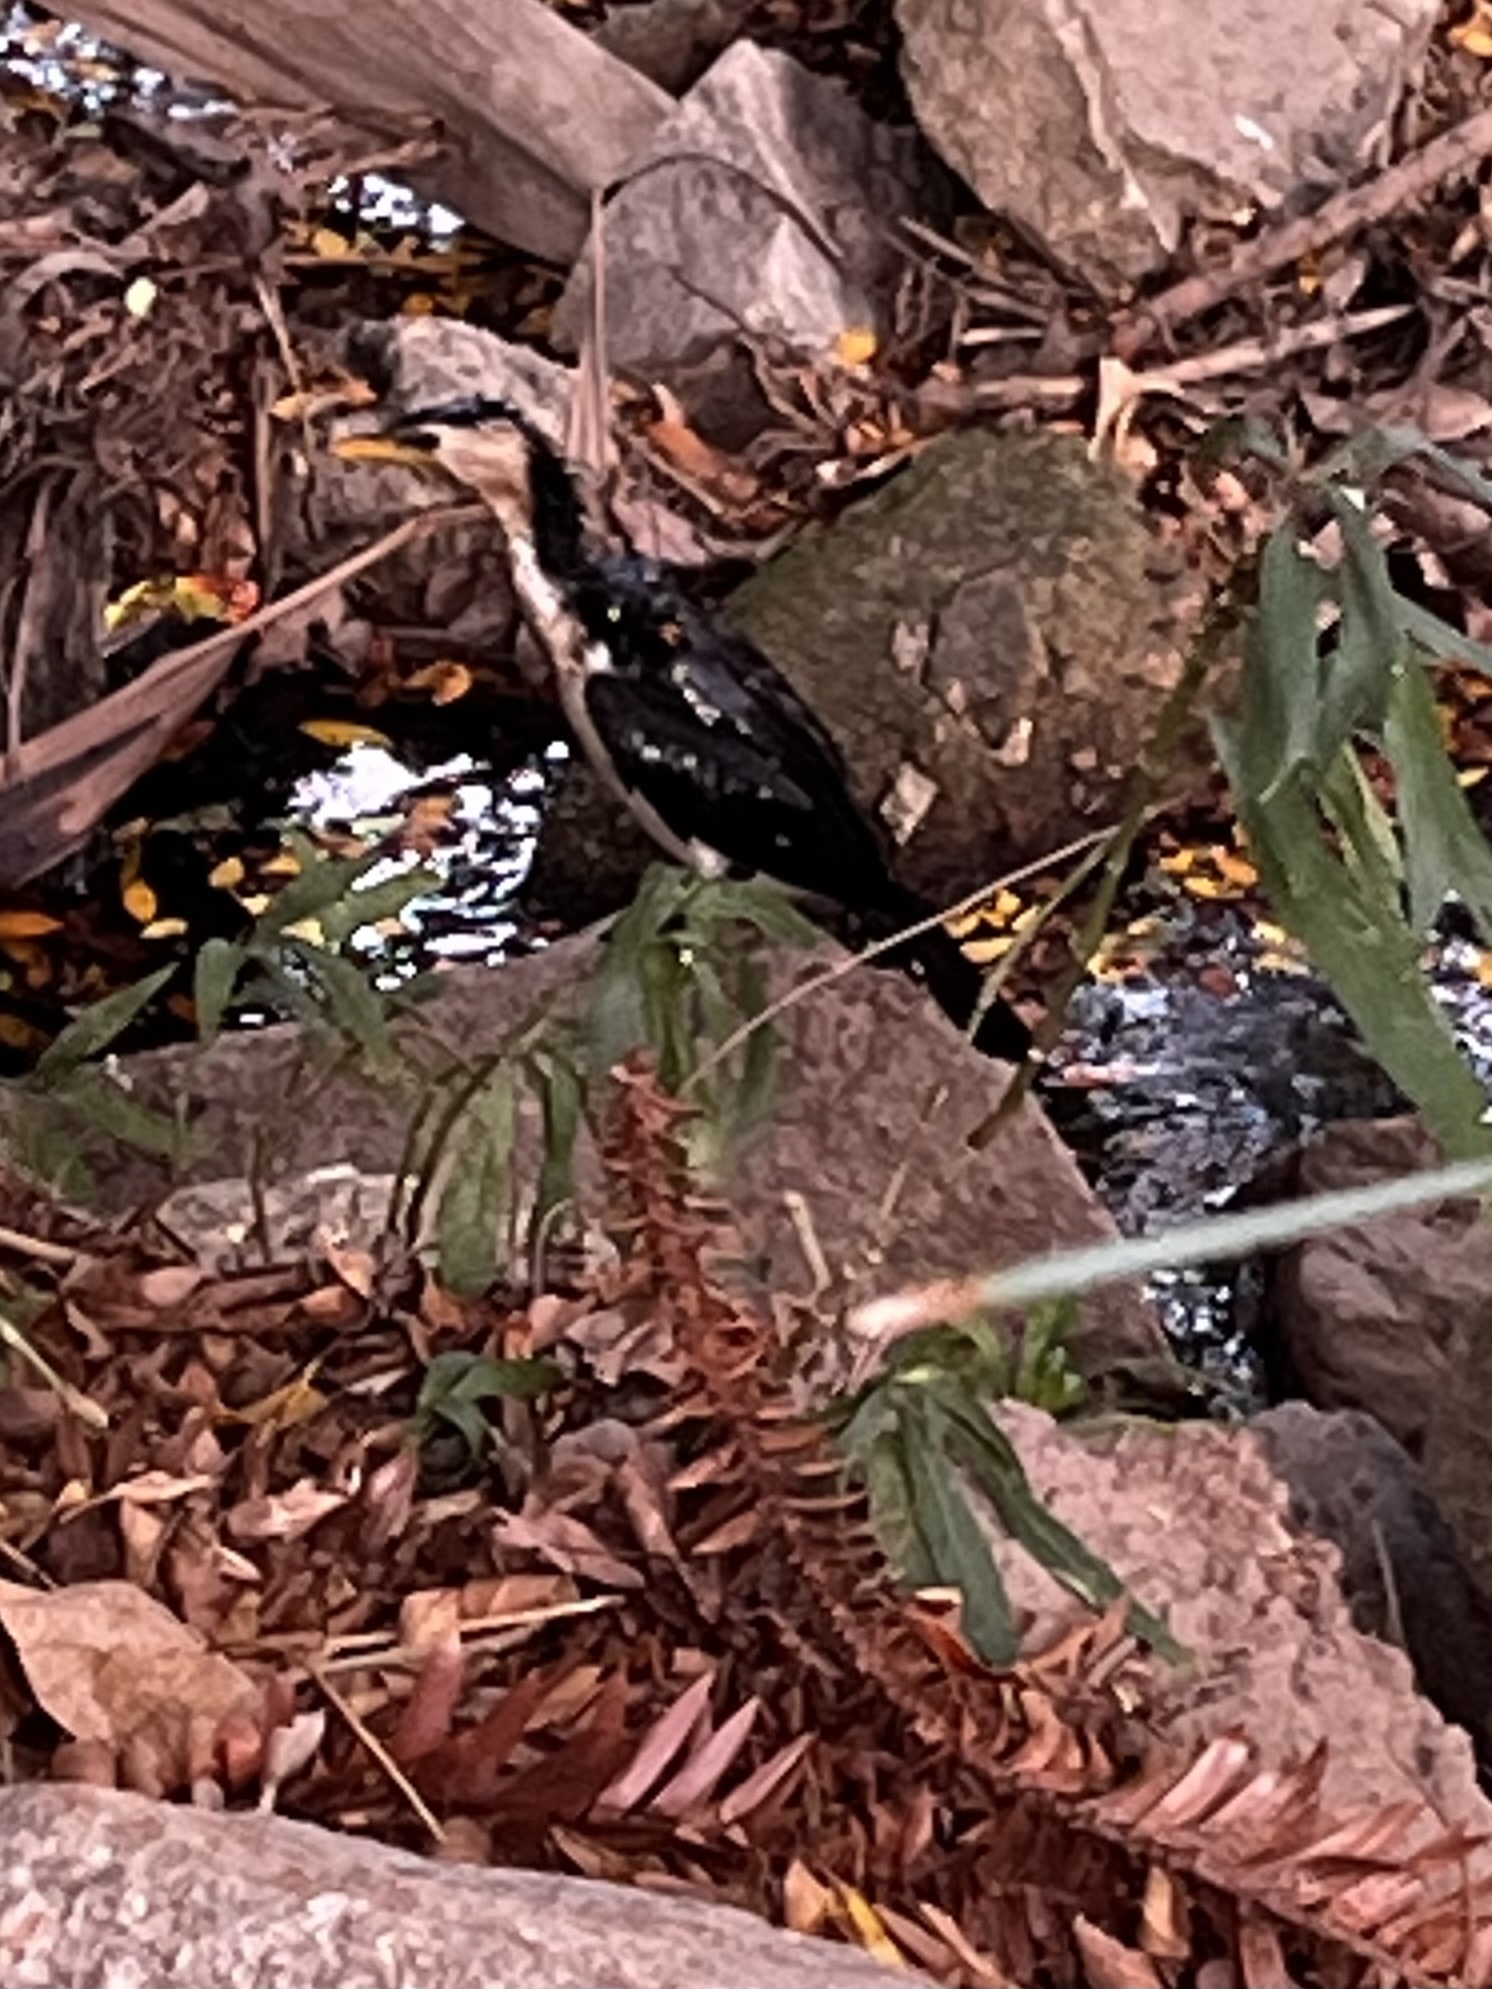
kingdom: Animalia
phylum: Chordata
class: Aves
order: Suliformes
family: Phalacrocoracidae
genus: Microcarbo
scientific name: Microcarbo melanoleucos
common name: Little pied cormorant
